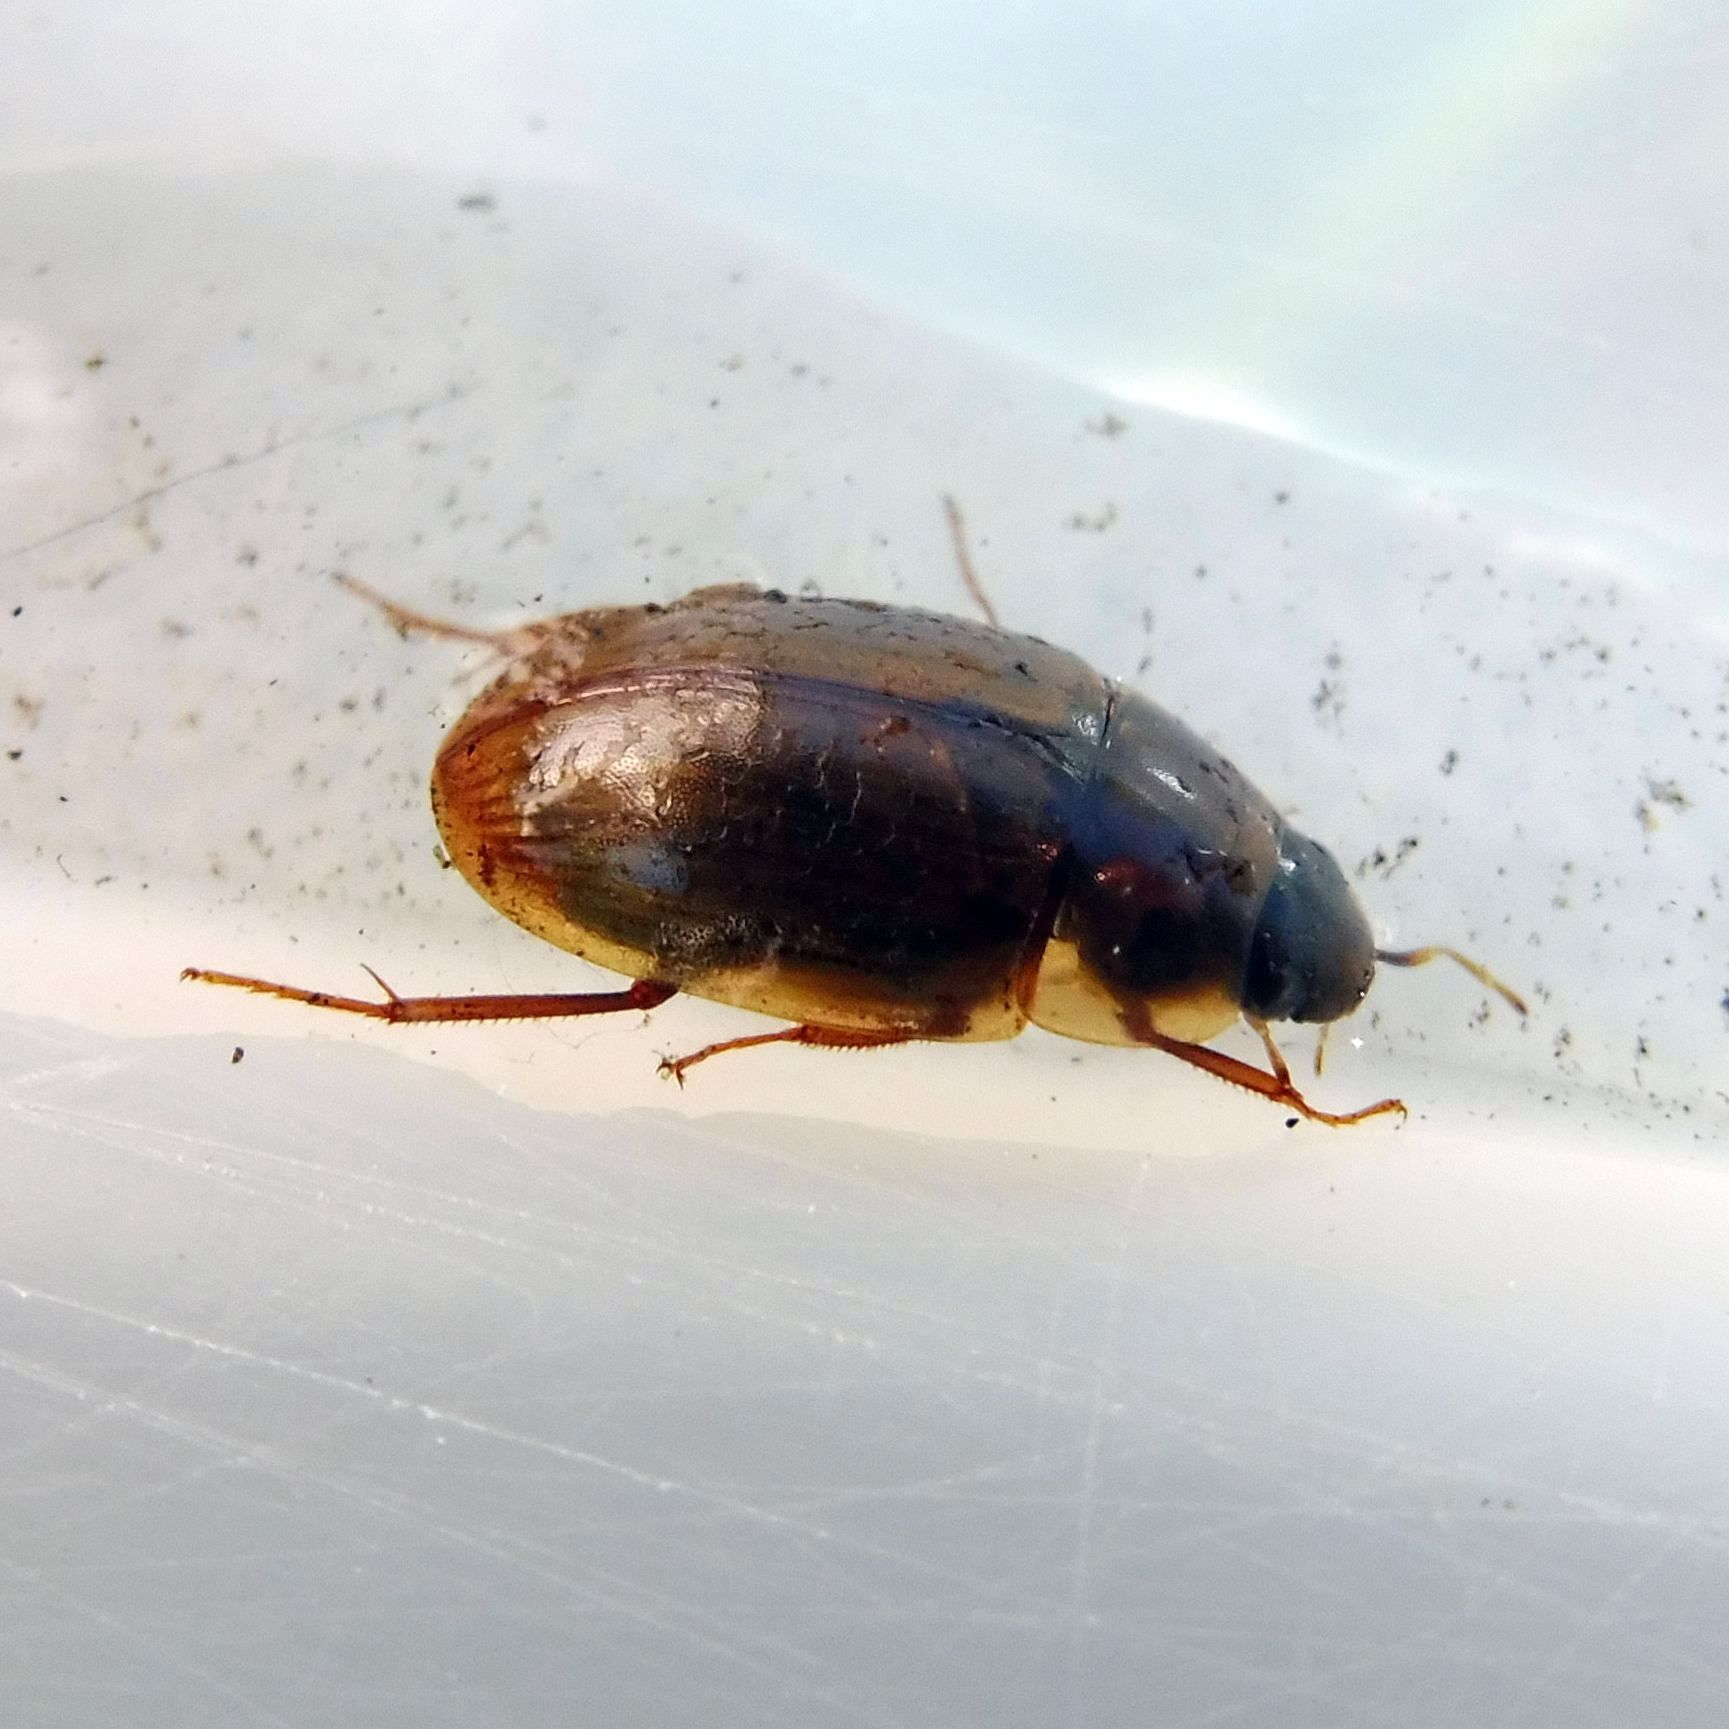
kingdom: Animalia
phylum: Arthropoda
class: Insecta
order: Coleoptera
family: Hydrophilidae
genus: Enochrus
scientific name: Enochrus testaceus
